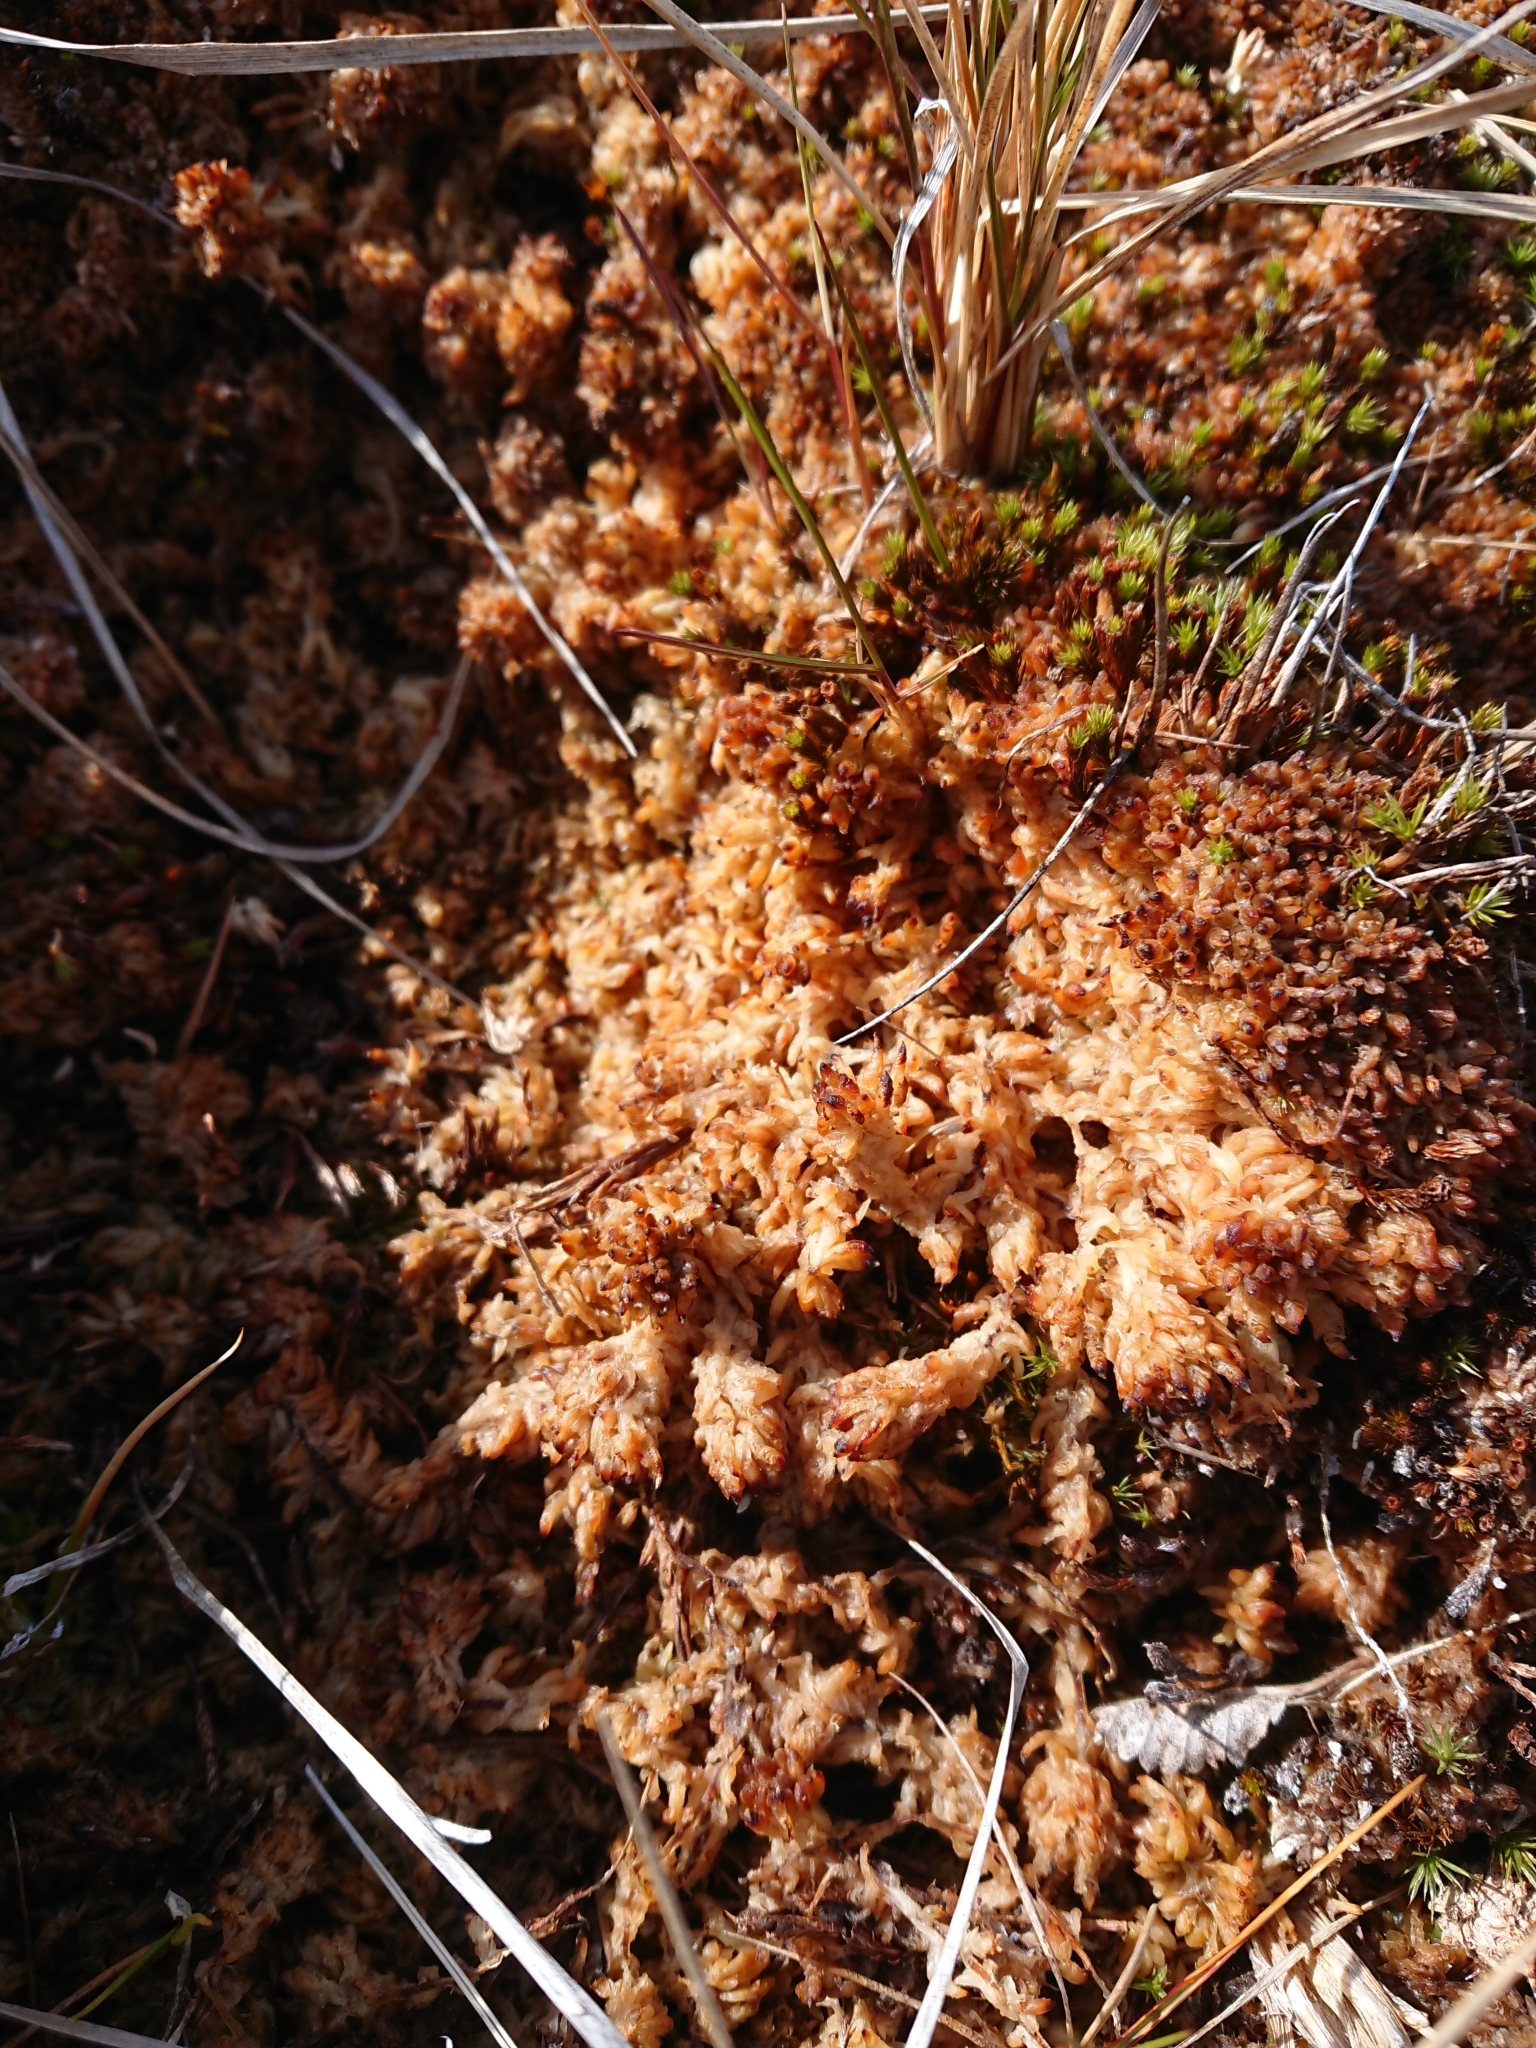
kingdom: Plantae
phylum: Bryophyta
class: Sphagnopsida
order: Sphagnales
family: Sphagnaceae
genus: Sphagnum
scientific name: Sphagnum magellanicum
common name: Magellan's peat moss
